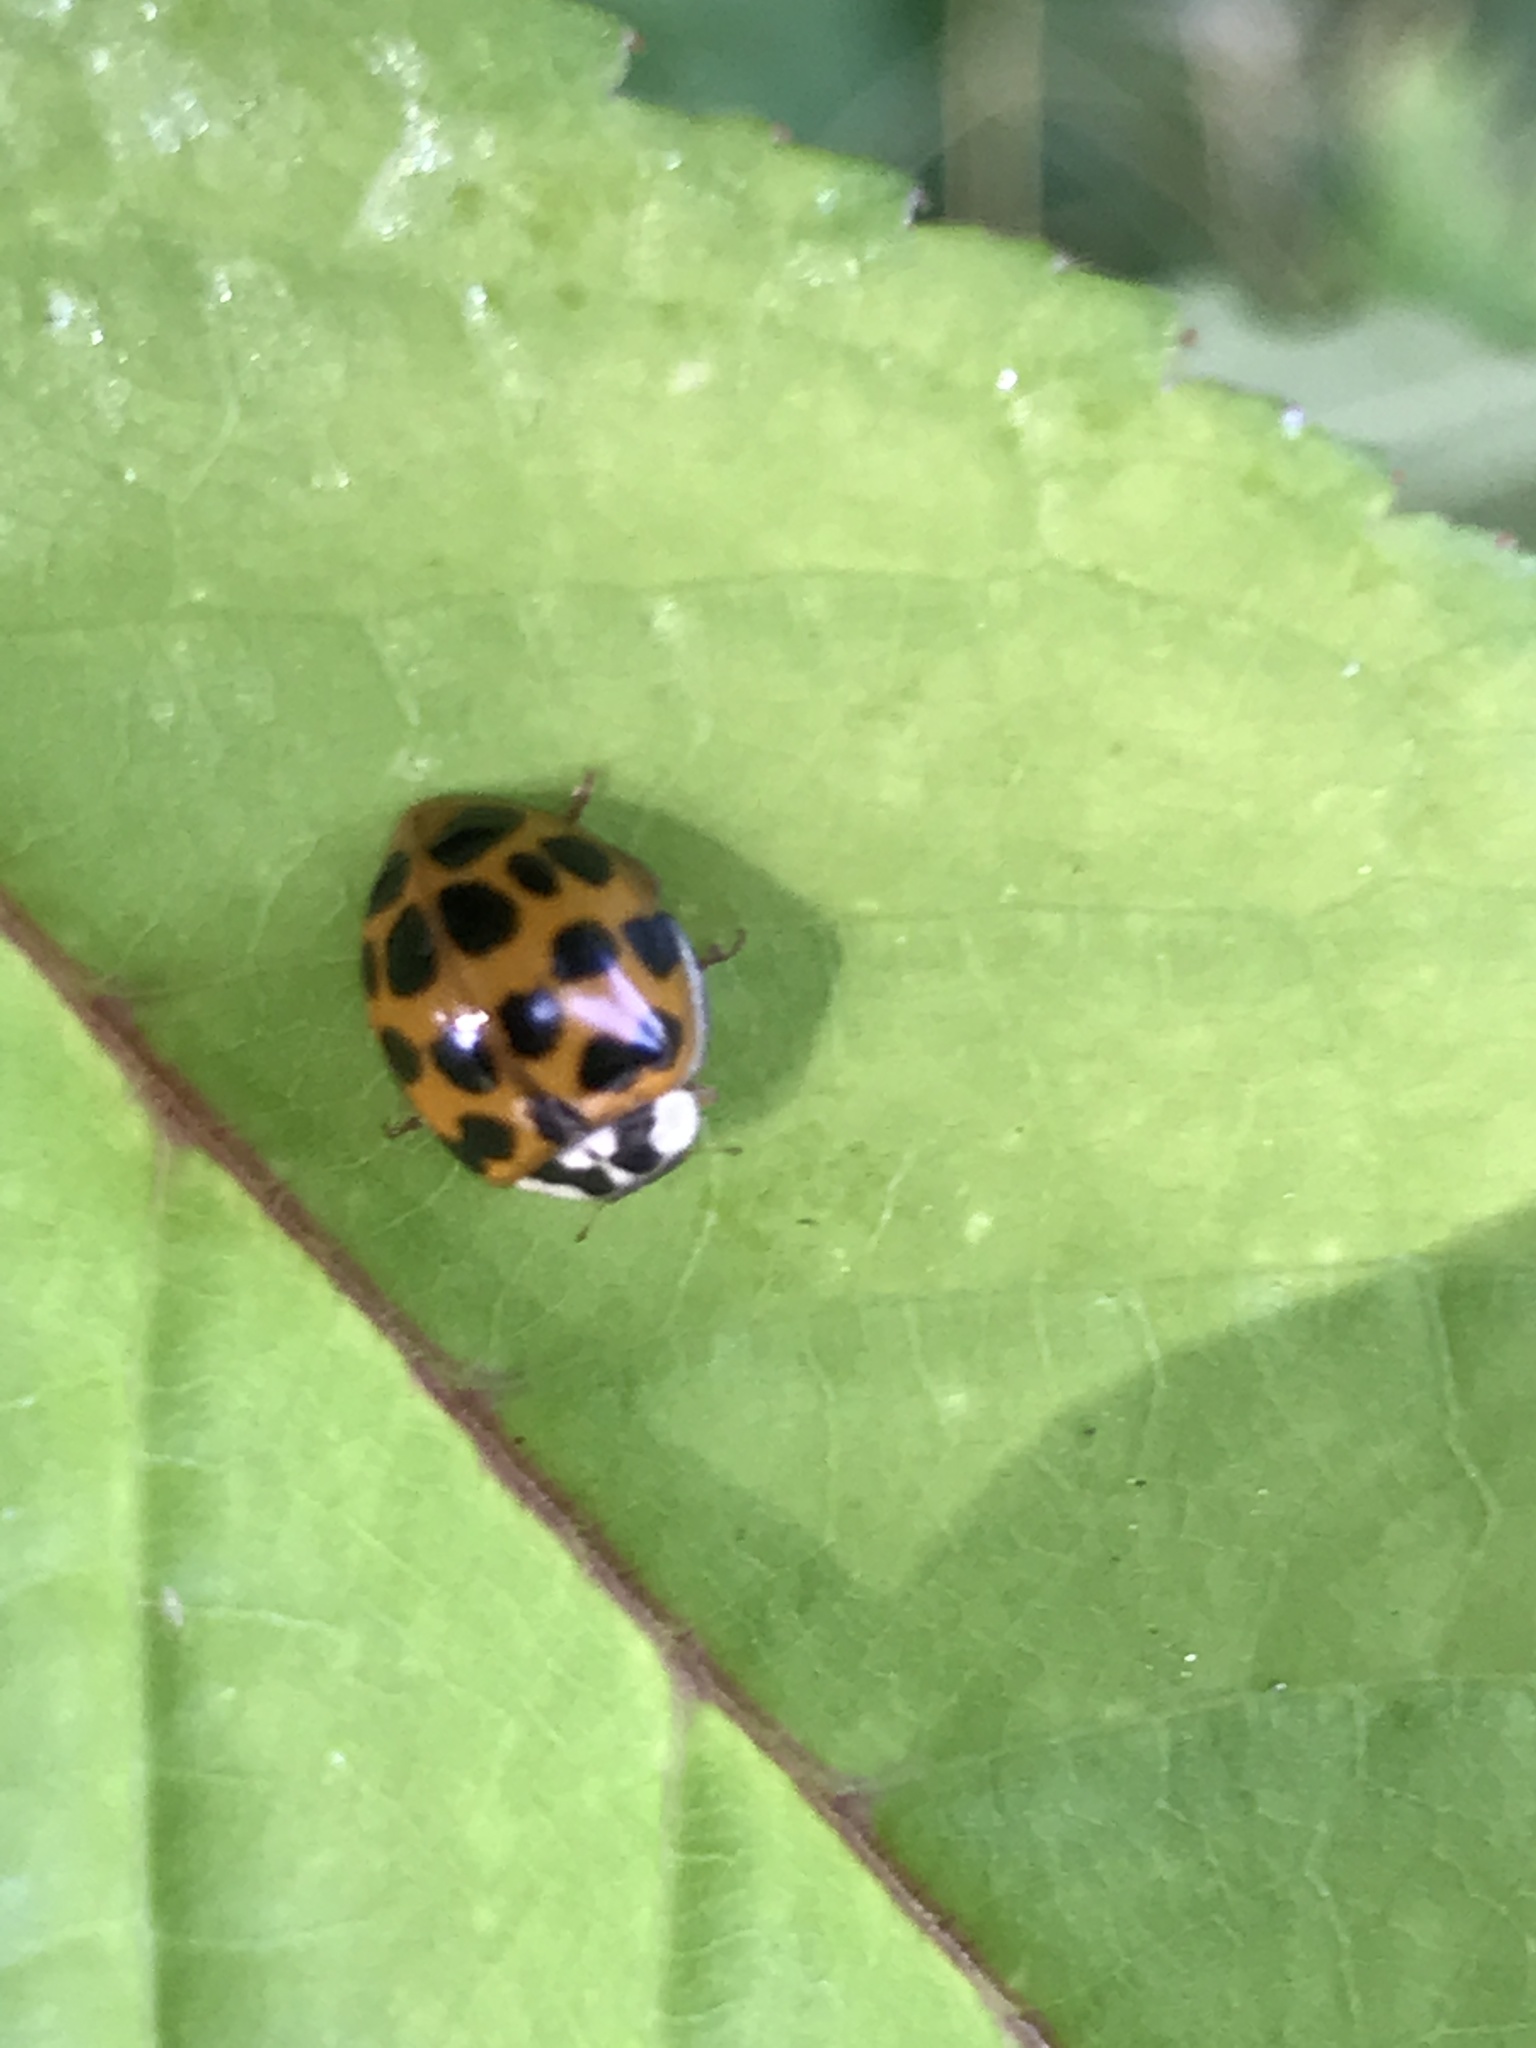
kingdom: Animalia
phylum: Arthropoda
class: Insecta
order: Coleoptera
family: Coccinellidae
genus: Harmonia
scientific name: Harmonia axyridis
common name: Harlequin ladybird
